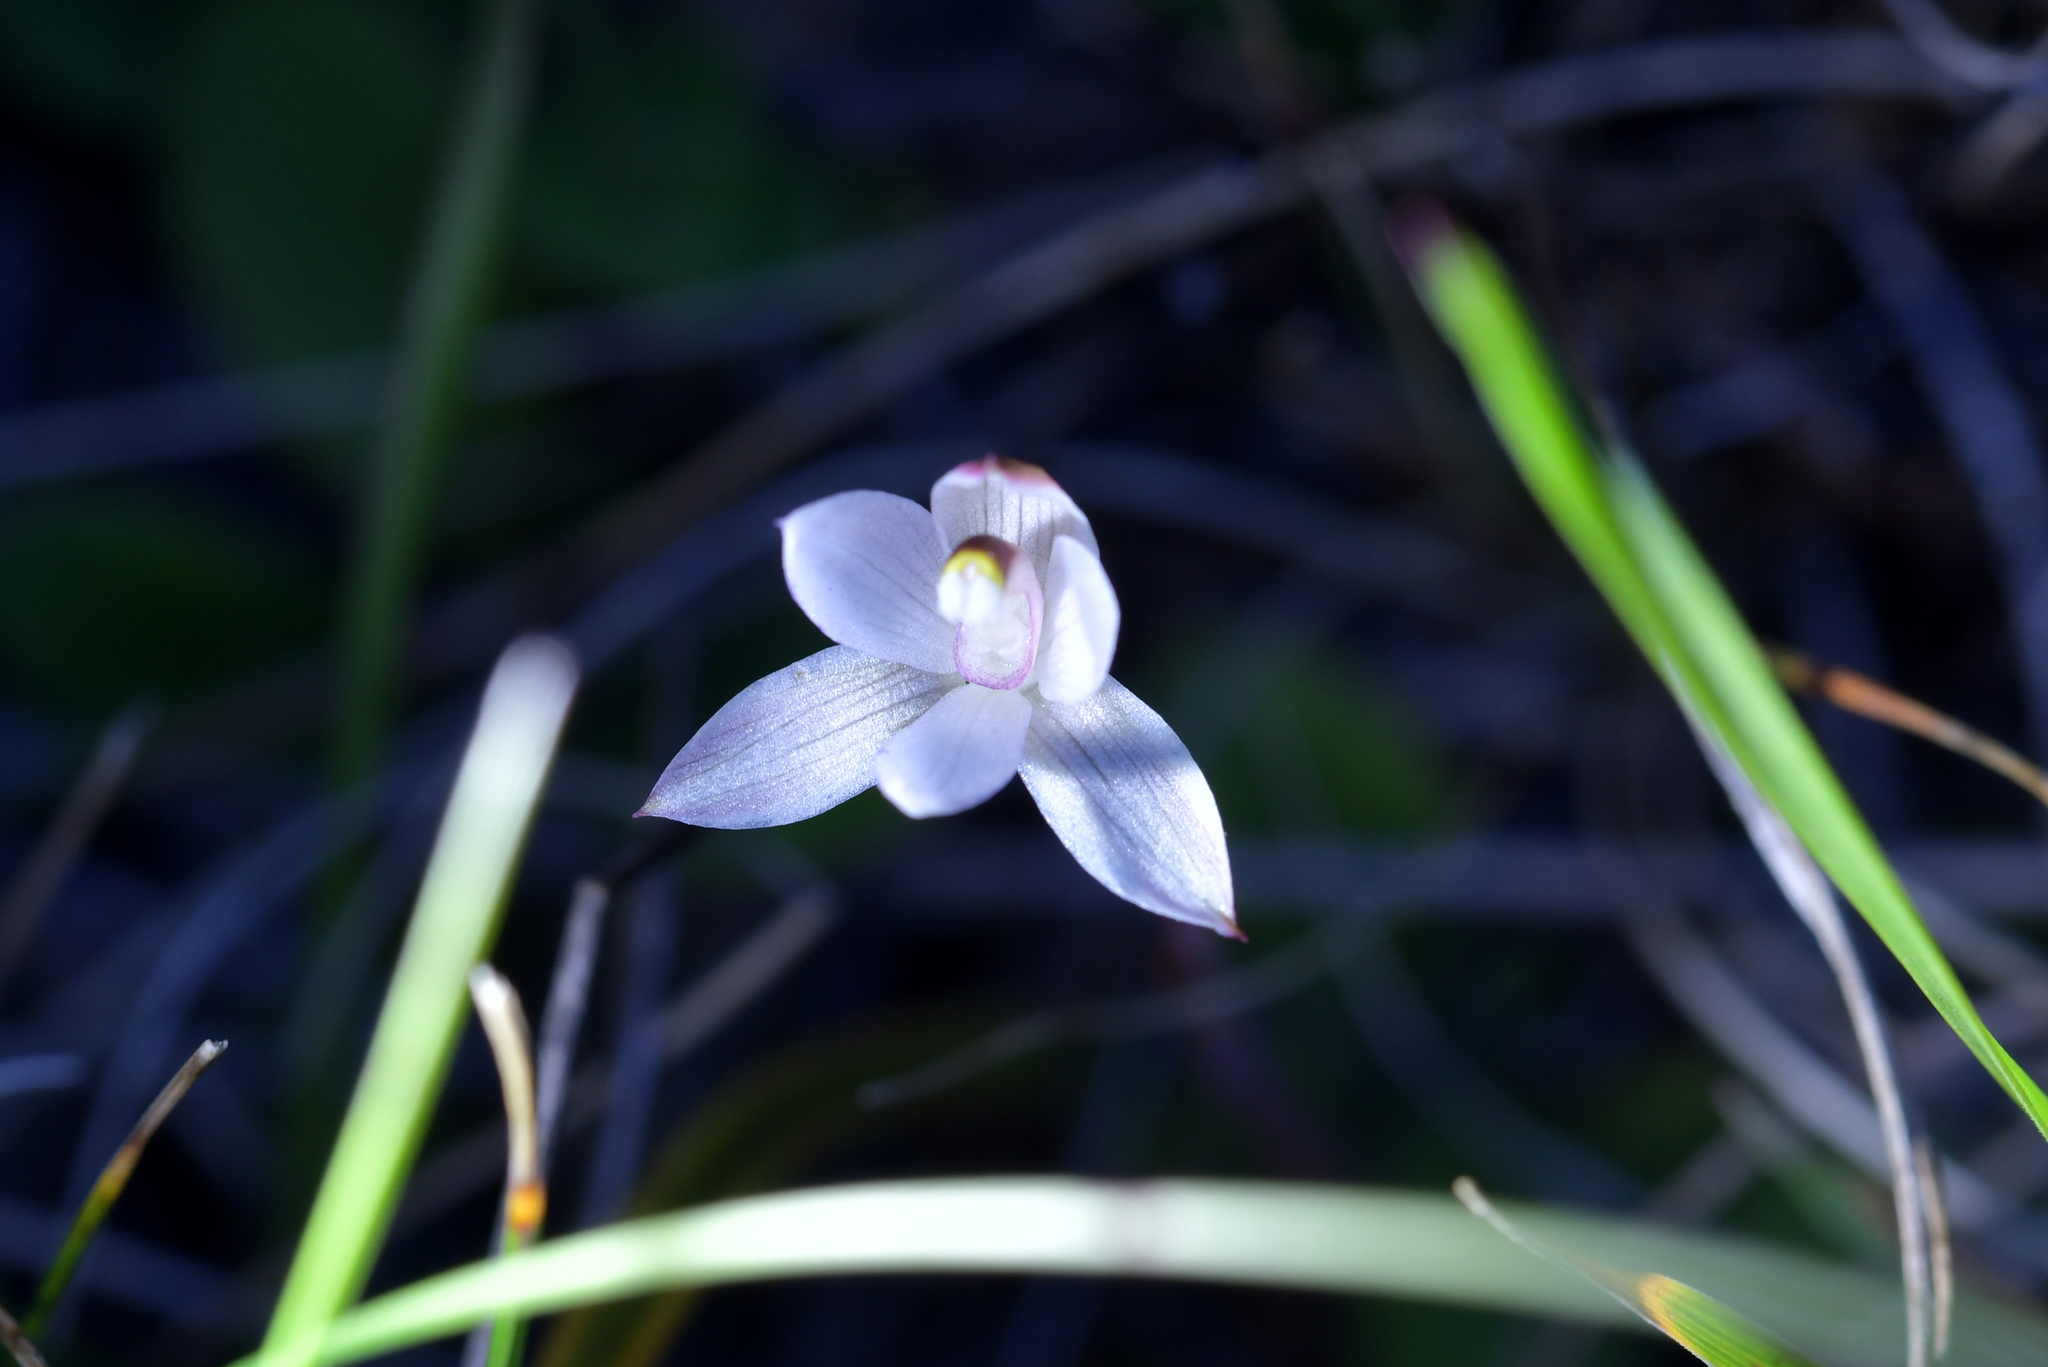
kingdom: Plantae
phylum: Tracheophyta
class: Liliopsida
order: Asparagales
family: Orchidaceae
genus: Thelymitra
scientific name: Thelymitra longifolia
